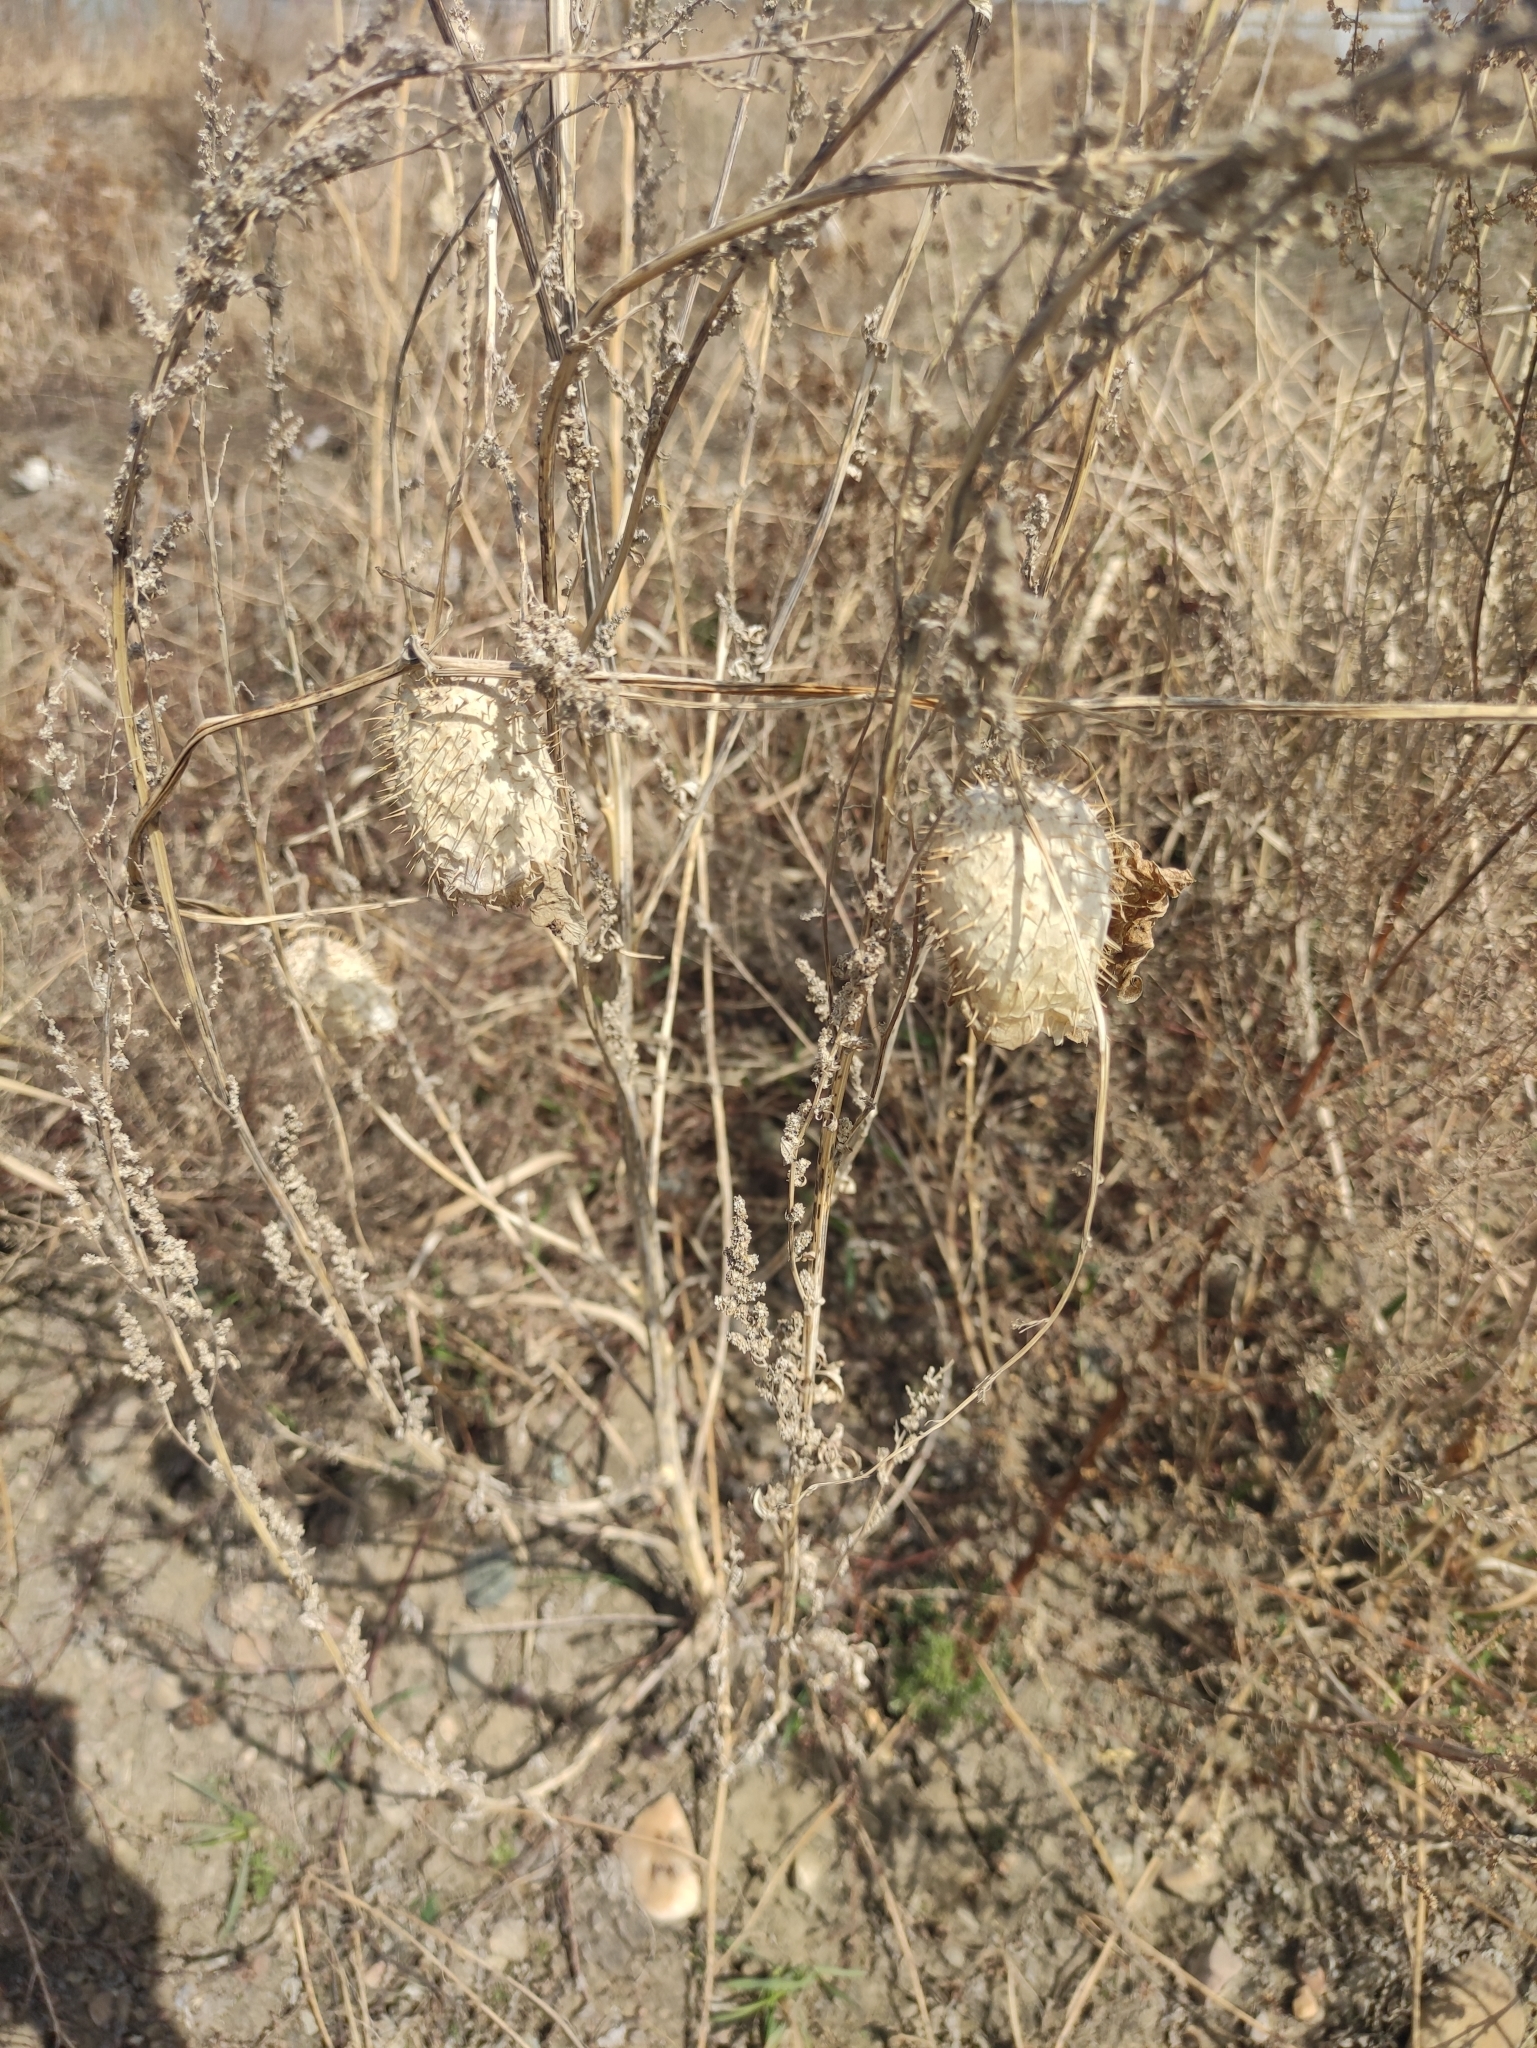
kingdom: Plantae
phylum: Tracheophyta
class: Magnoliopsida
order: Cucurbitales
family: Cucurbitaceae
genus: Echinocystis
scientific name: Echinocystis lobata
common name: Wild cucumber
